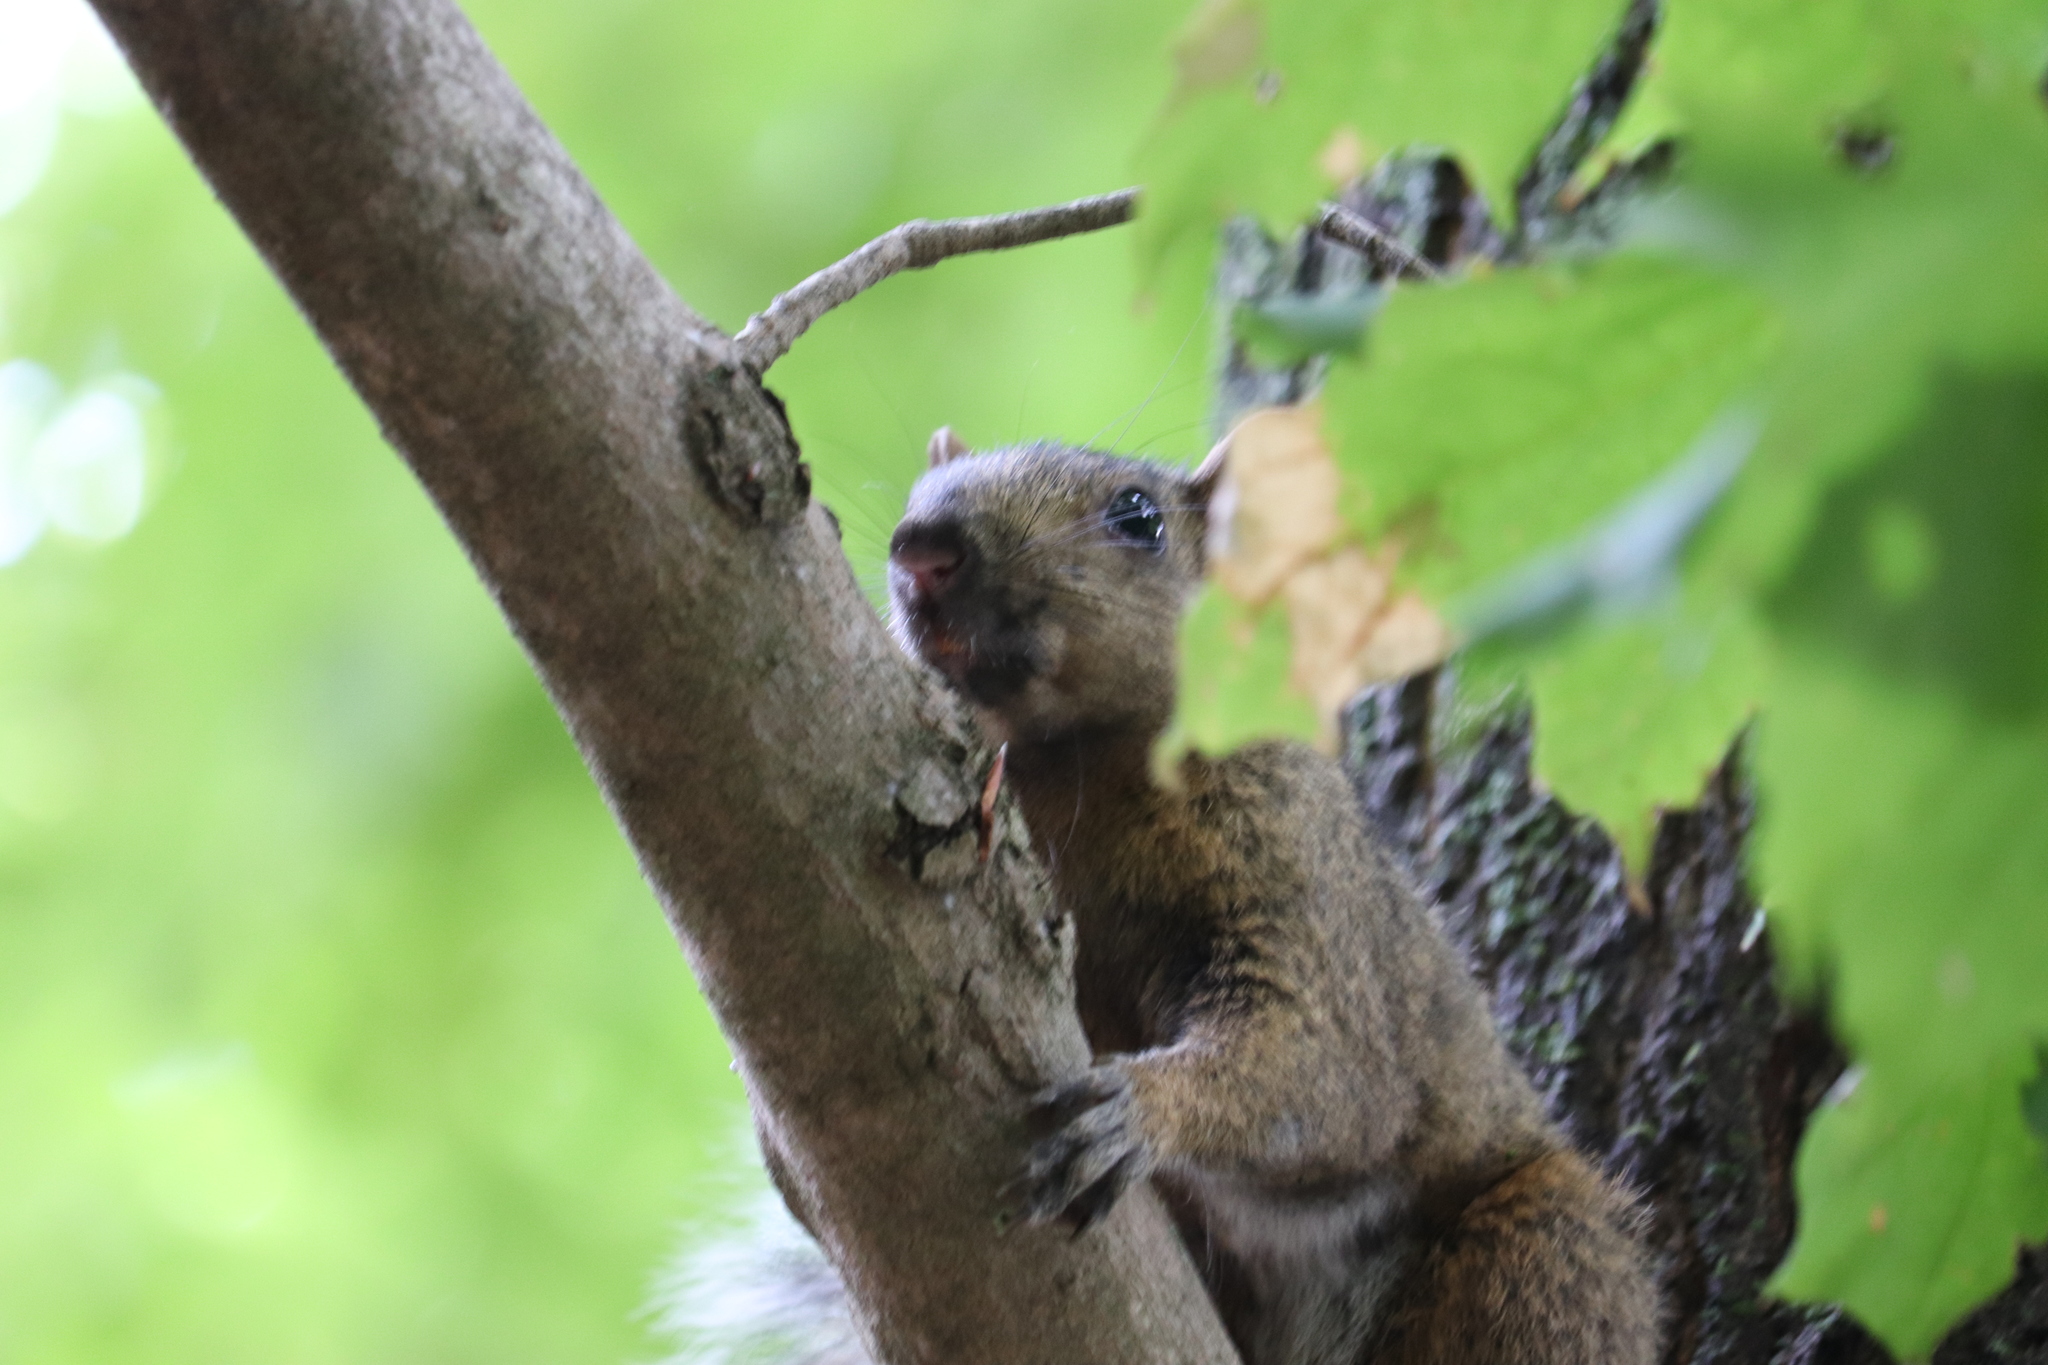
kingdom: Animalia
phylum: Chordata
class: Mammalia
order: Rodentia
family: Sciuridae
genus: Sciurus
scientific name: Sciurus carolinensis
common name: Eastern gray squirrel
